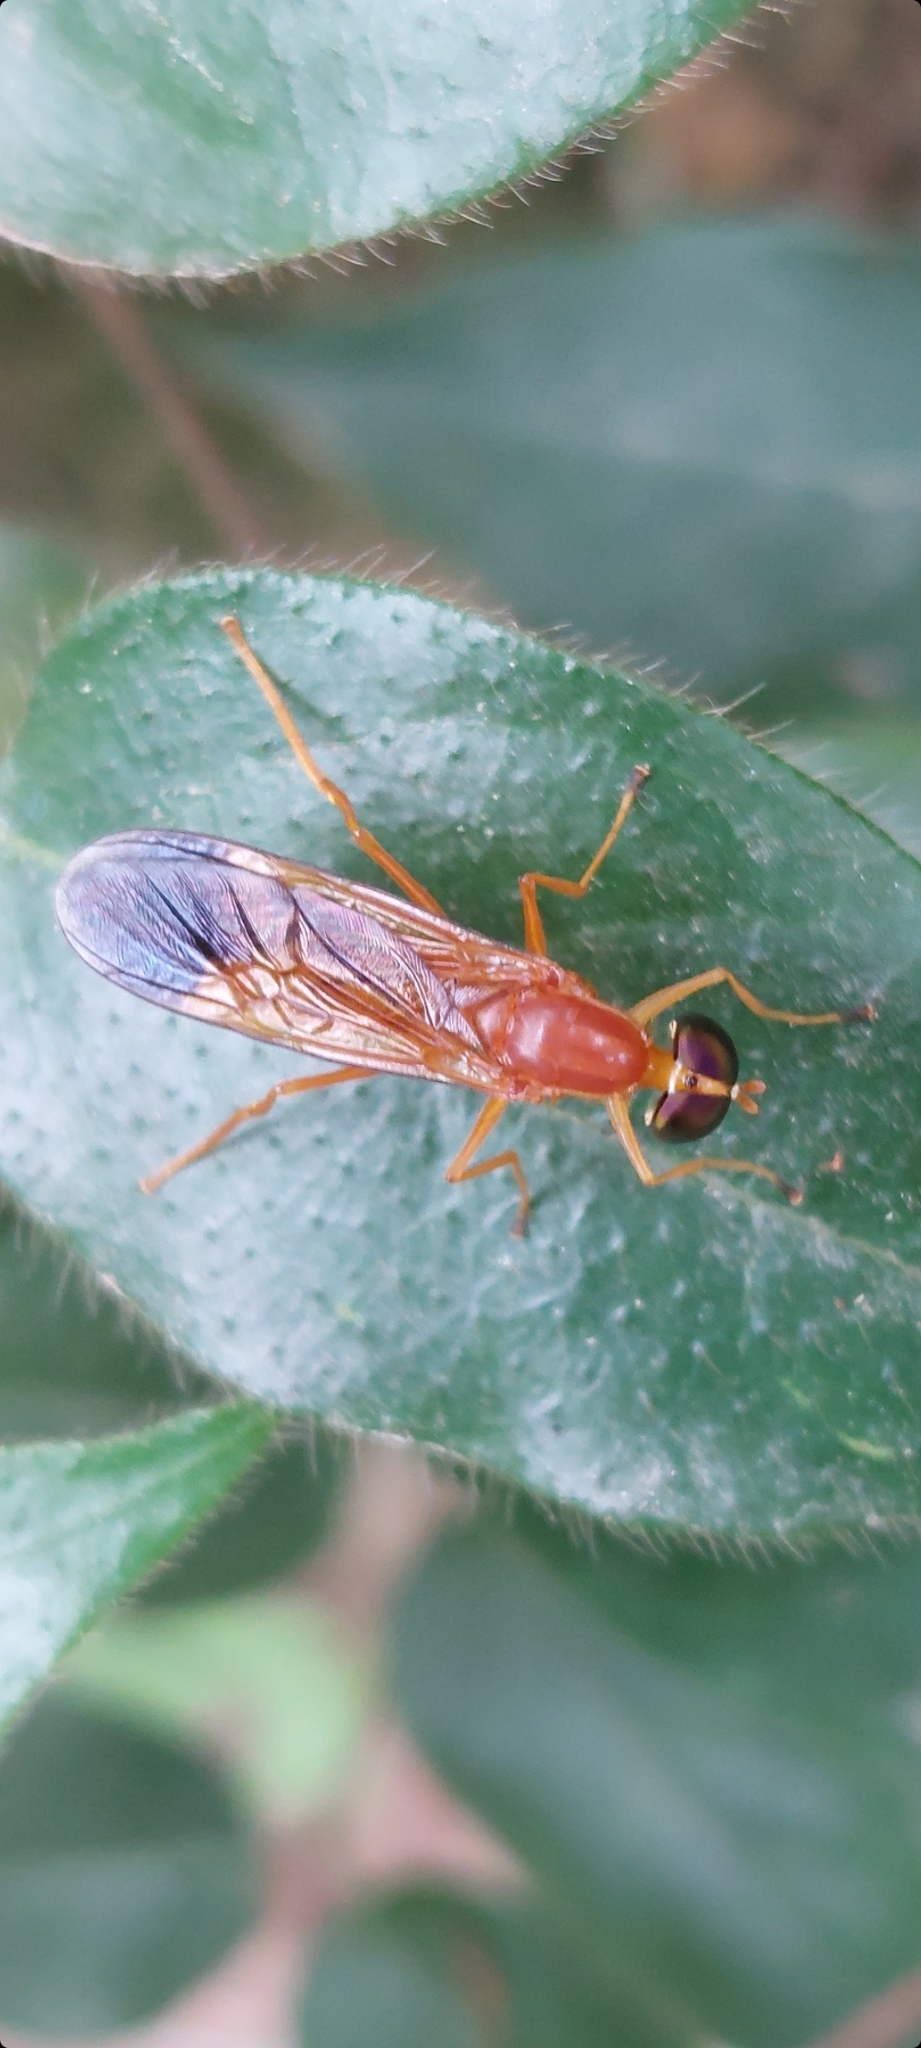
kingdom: Animalia
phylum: Arthropoda
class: Insecta
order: Diptera
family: Stratiomyidae
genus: Ptecticus
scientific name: Ptecticus aurifer
